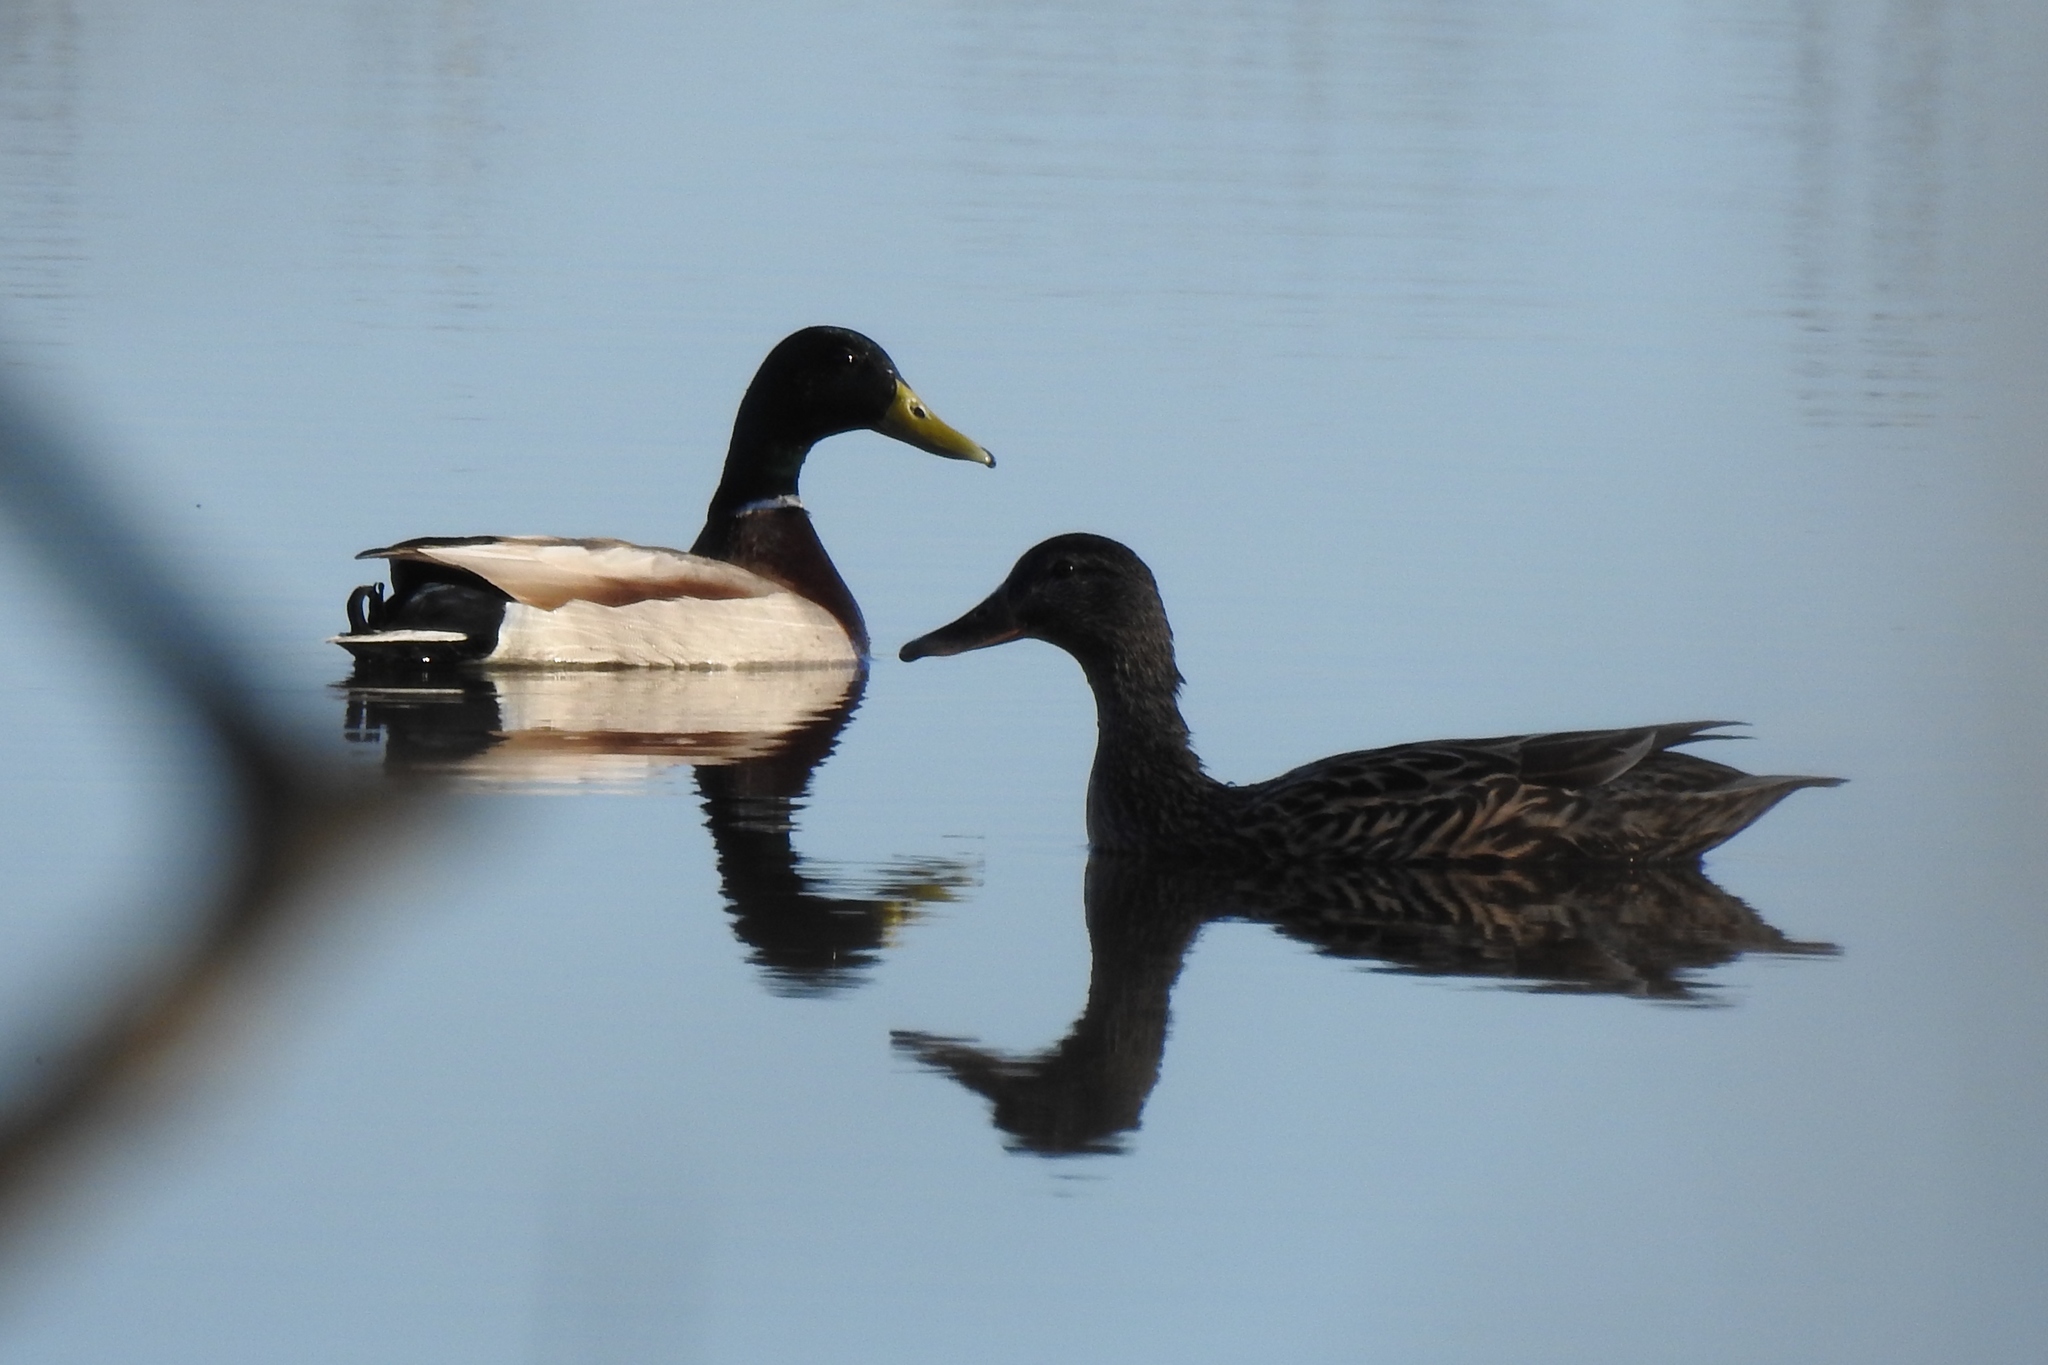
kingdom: Animalia
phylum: Chordata
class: Aves
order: Anseriformes
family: Anatidae
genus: Anas
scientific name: Anas platyrhynchos
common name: Mallard
